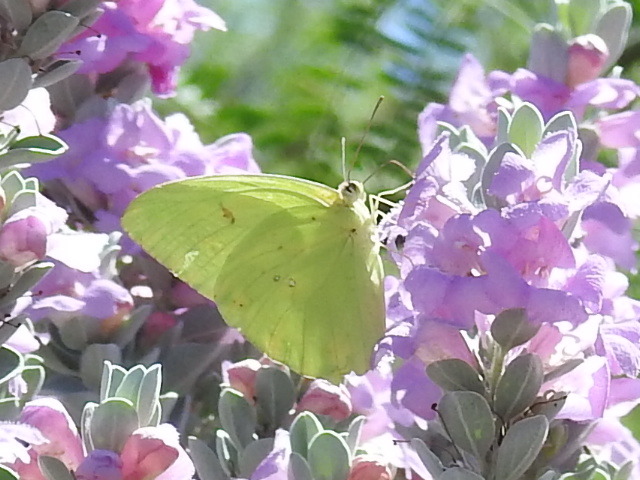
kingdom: Animalia
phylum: Arthropoda
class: Insecta
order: Lepidoptera
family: Pieridae
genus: Phoebis
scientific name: Phoebis sennae
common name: Cloudless sulphur
